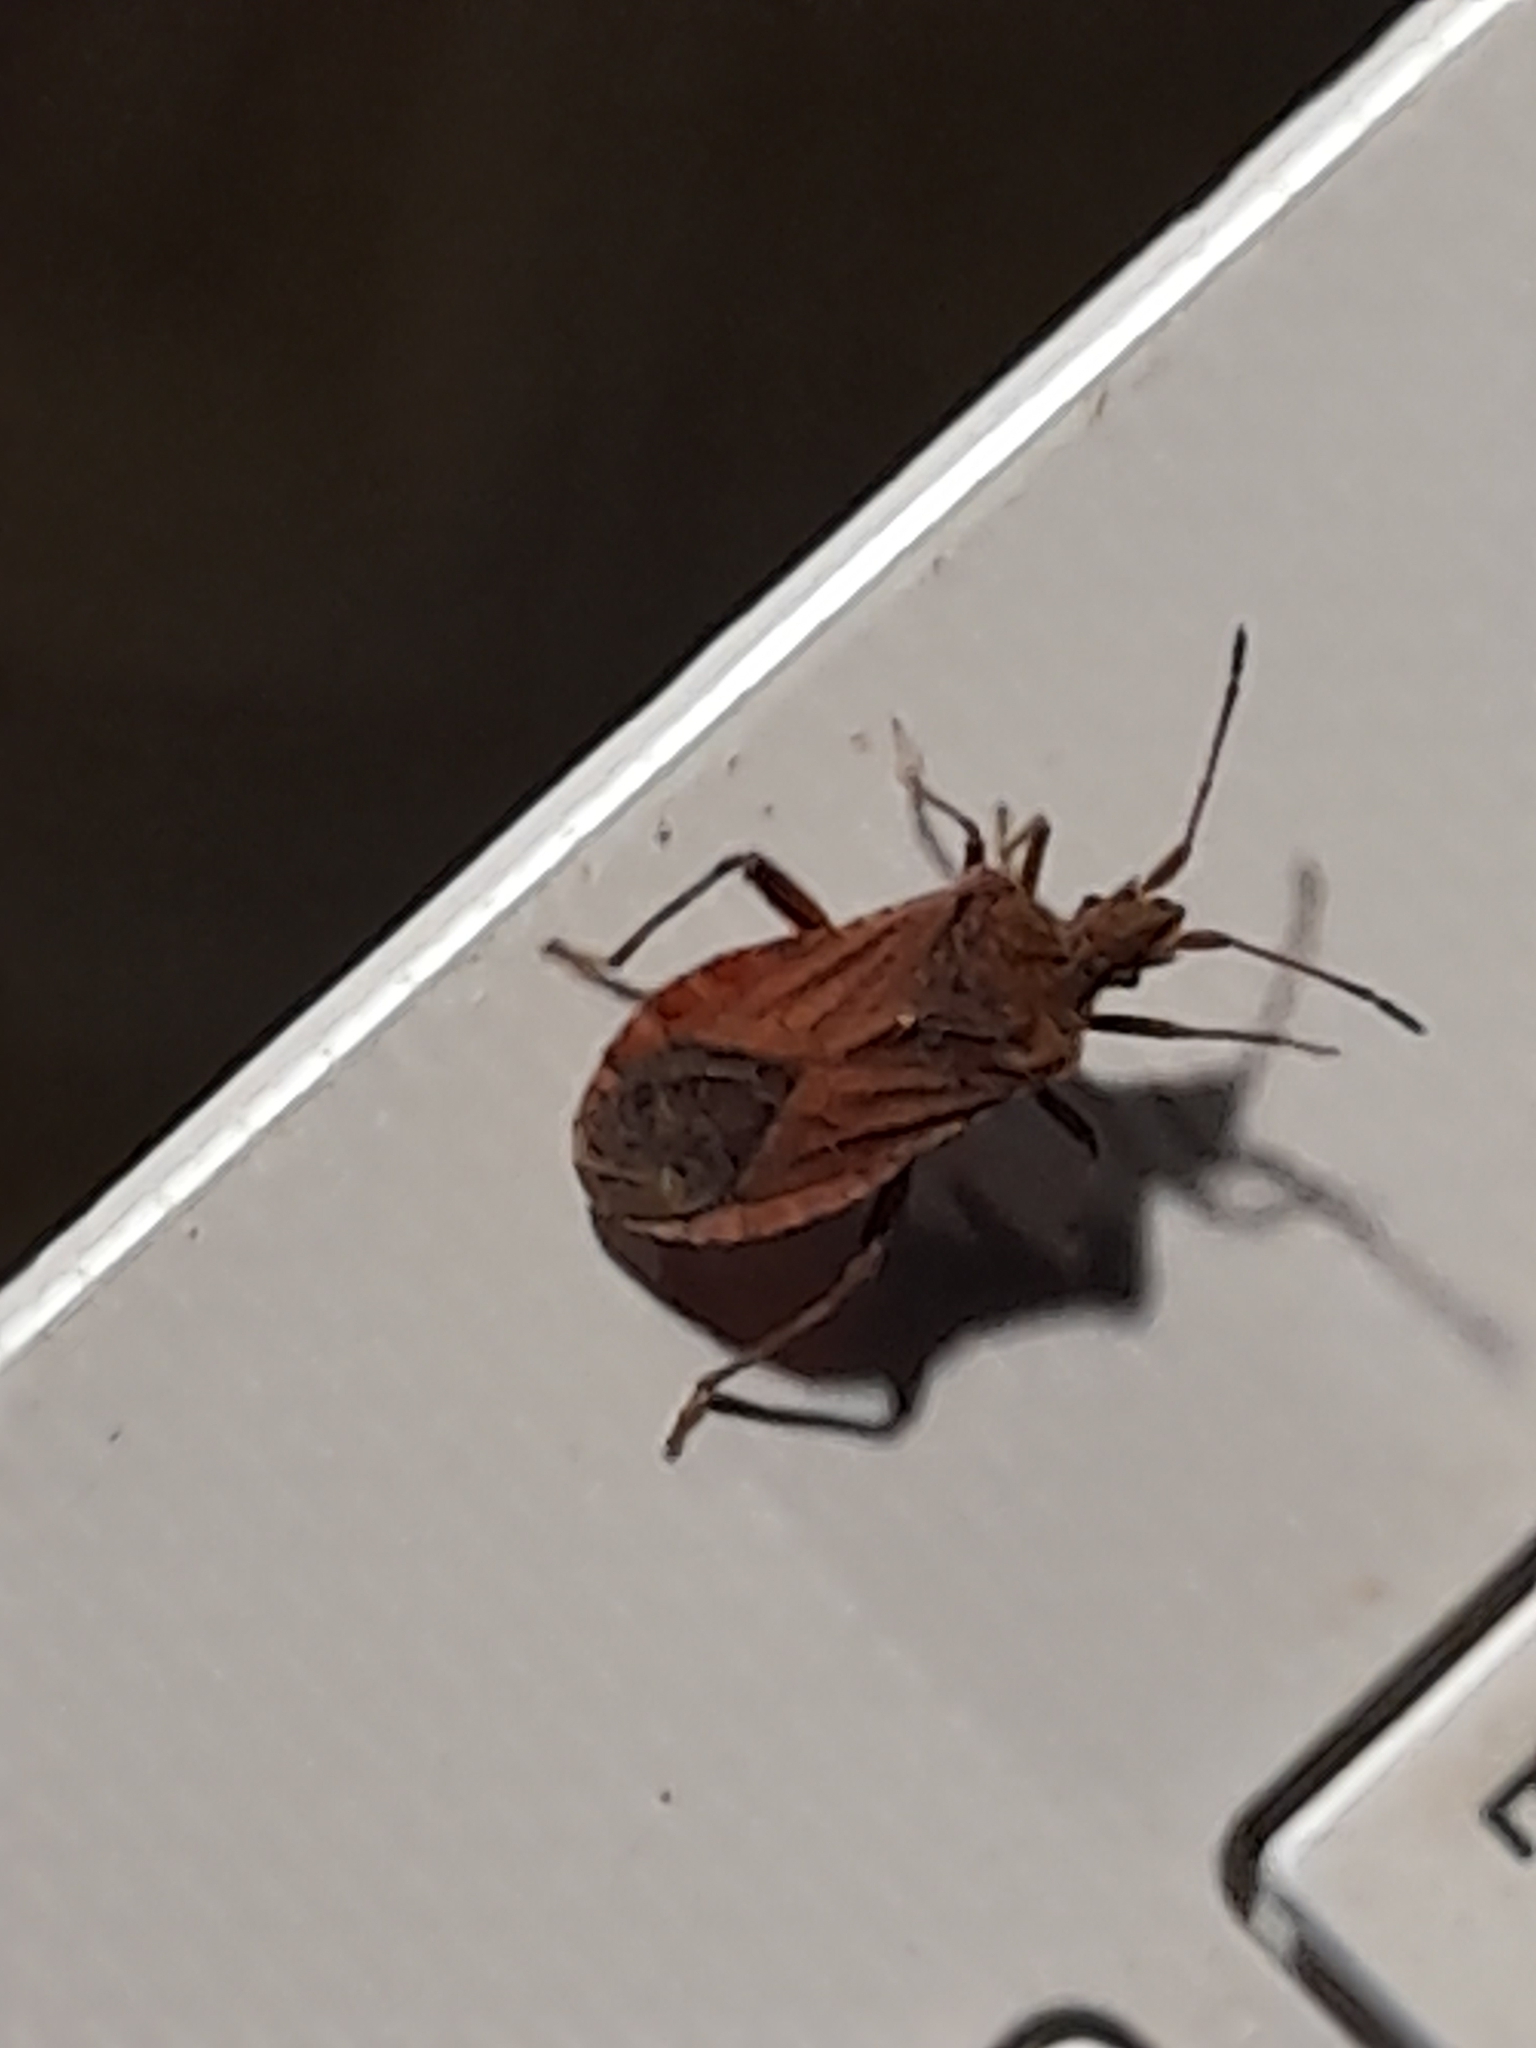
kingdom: Animalia
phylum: Arthropoda
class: Insecta
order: Hemiptera
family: Coreidae
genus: Anoplocerus
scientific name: Anoplocerus elevatus
